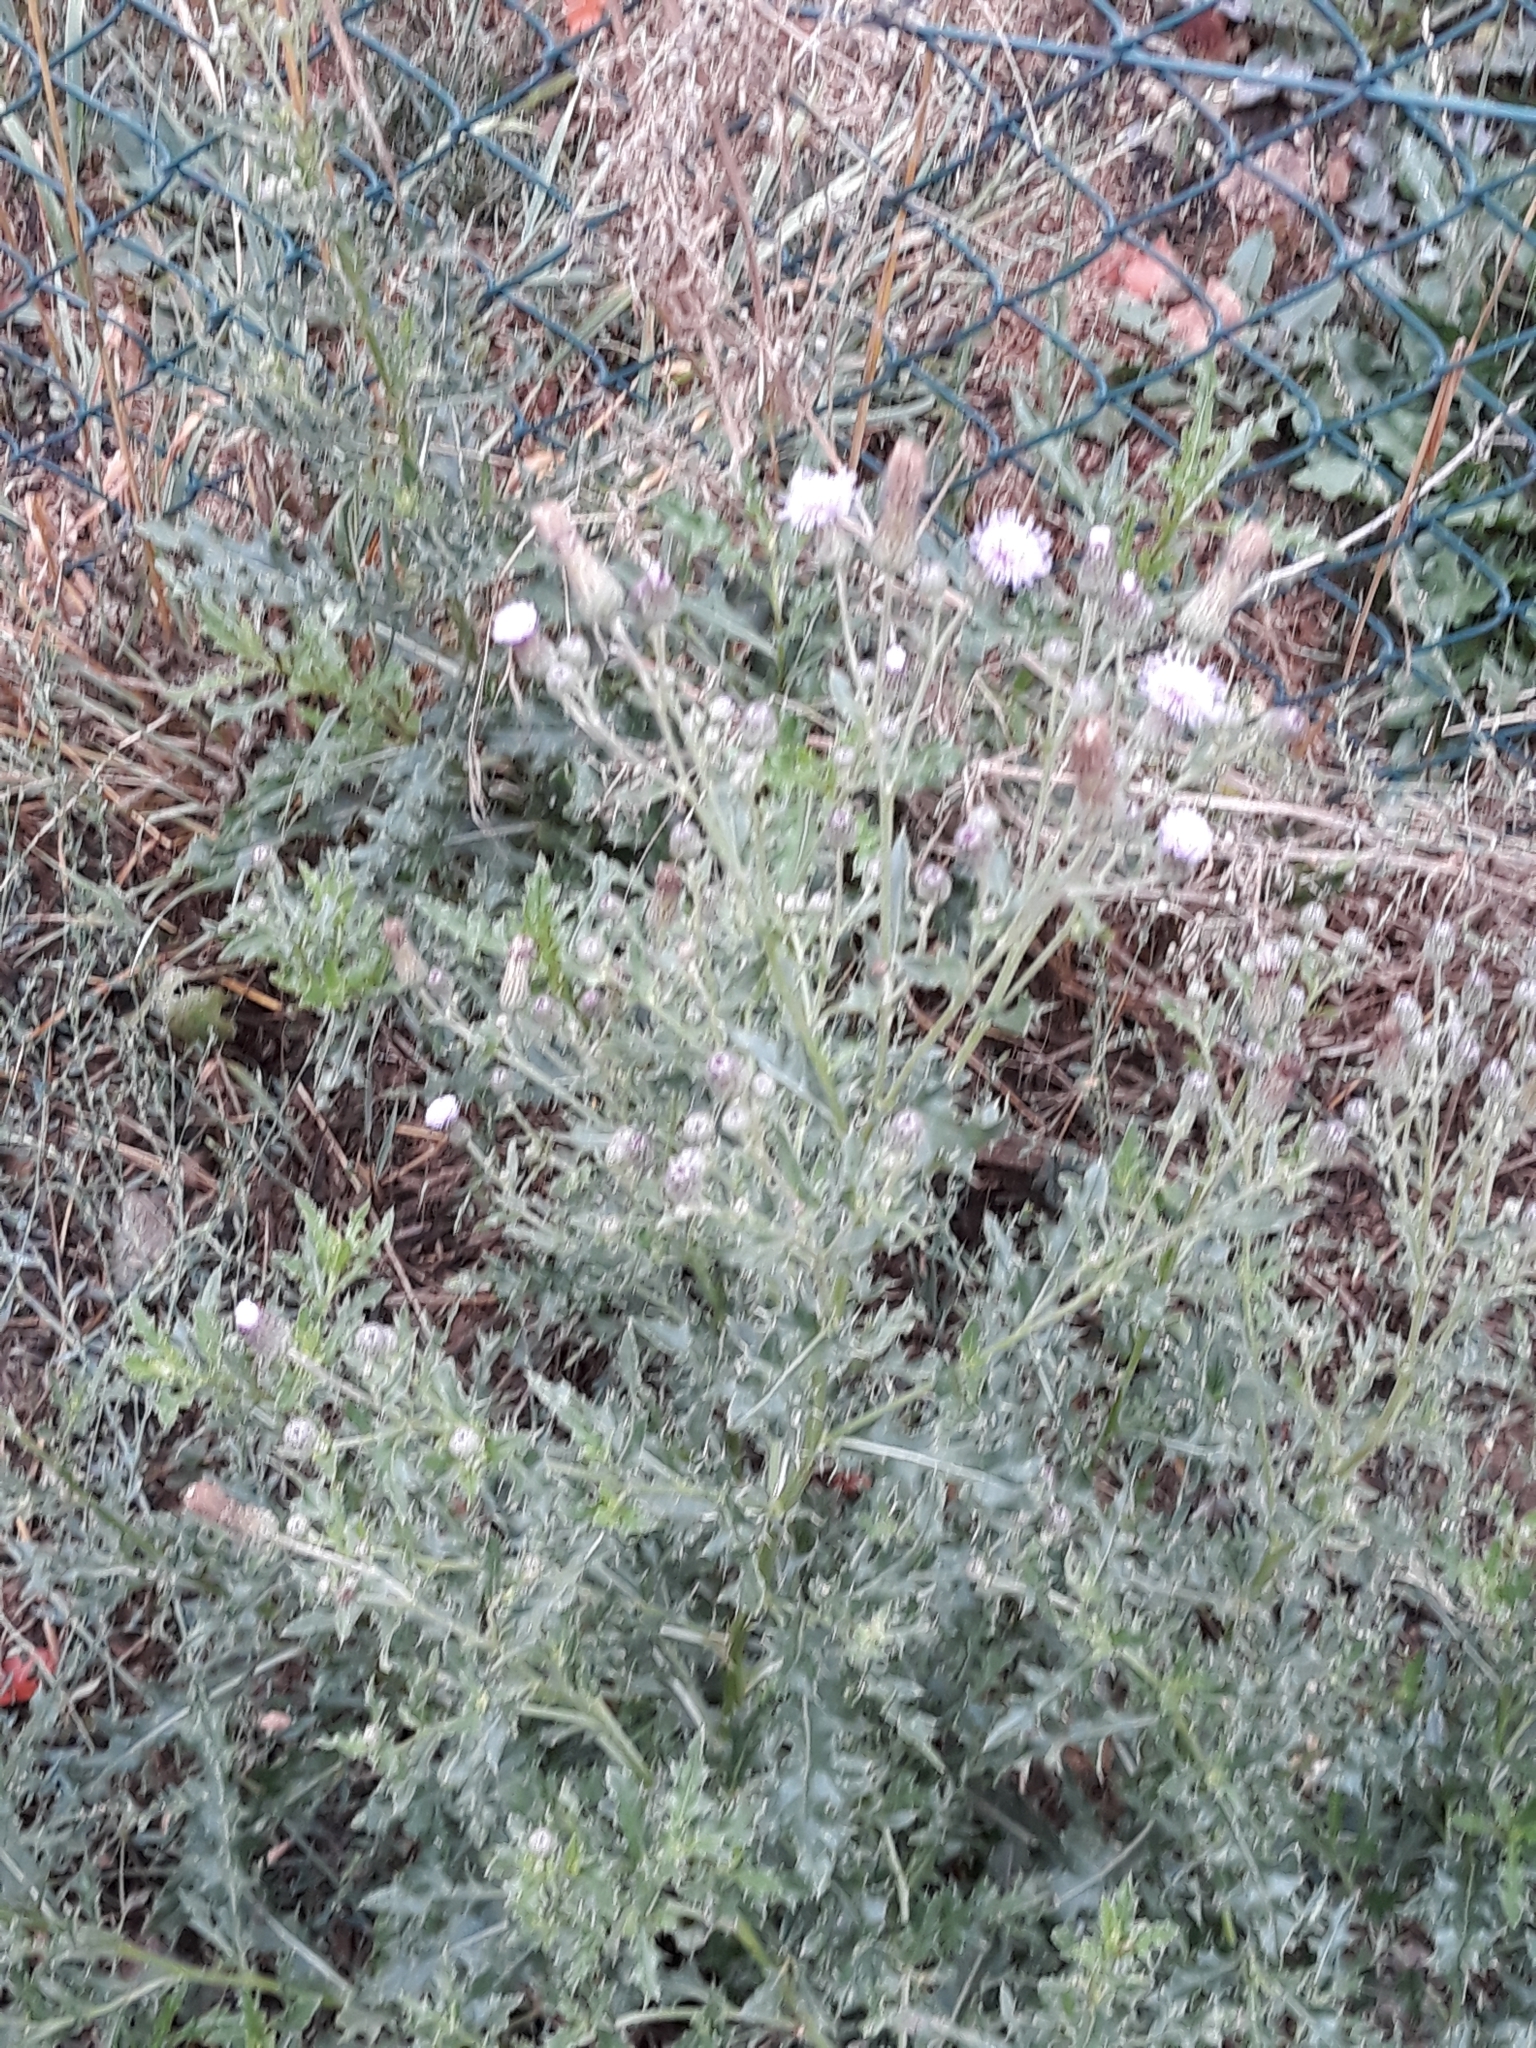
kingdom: Plantae
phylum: Tracheophyta
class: Magnoliopsida
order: Asterales
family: Asteraceae
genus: Cirsium
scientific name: Cirsium arvense
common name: Creeping thistle
